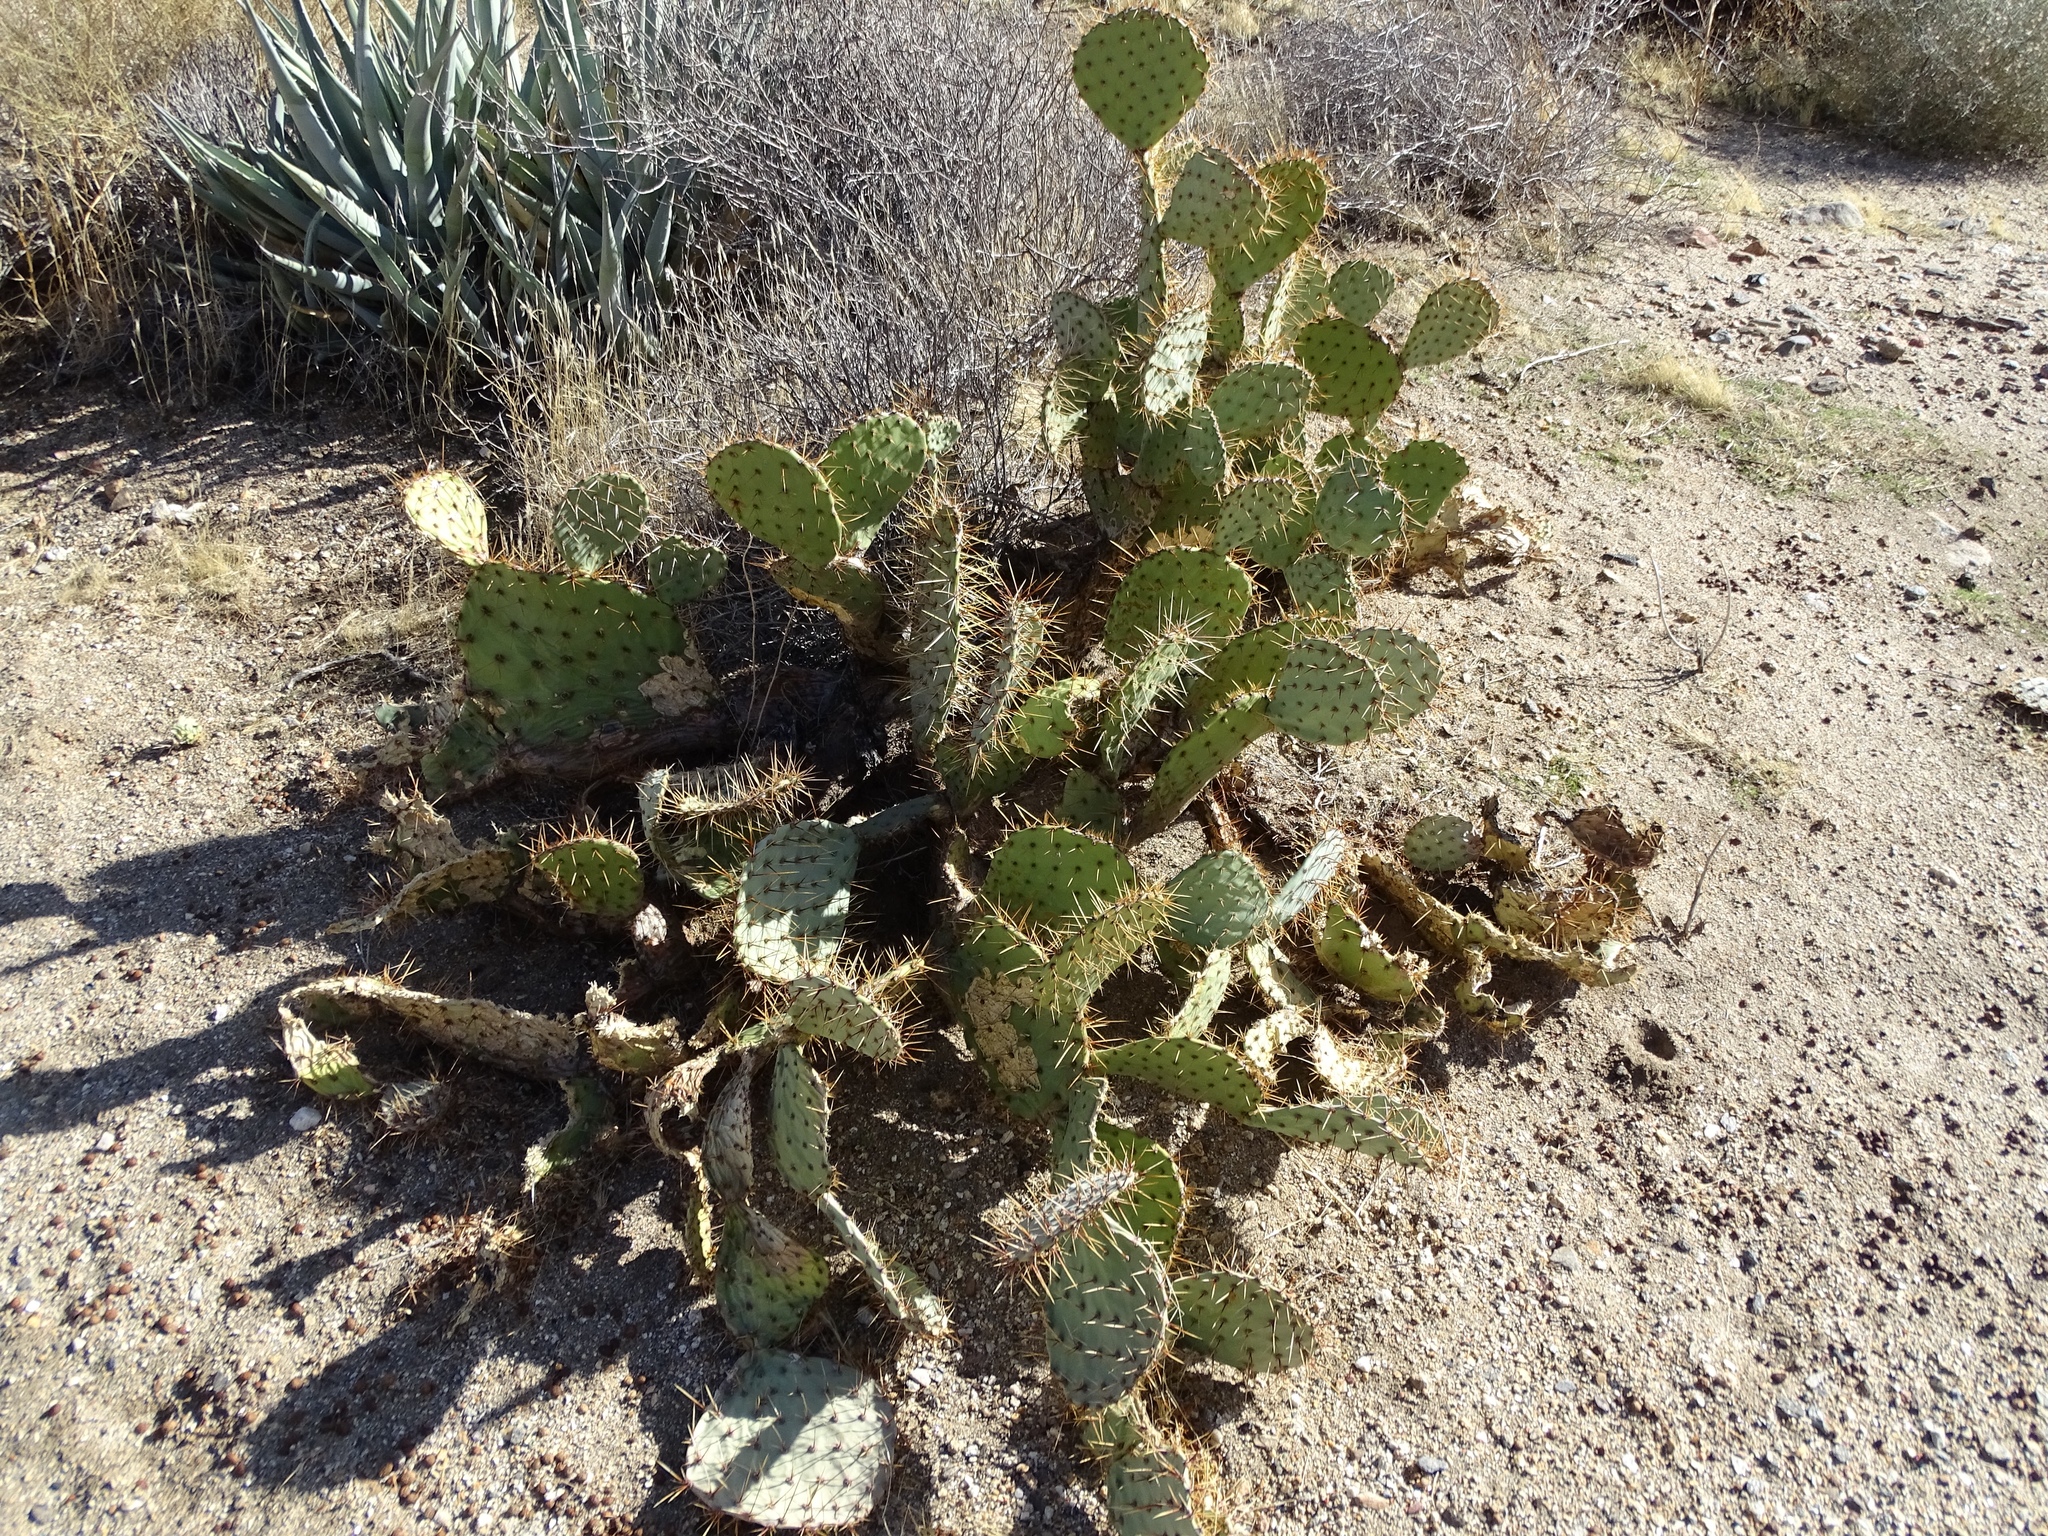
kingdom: Plantae
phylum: Tracheophyta
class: Magnoliopsida
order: Caryophyllales
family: Cactaceae
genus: Opuntia
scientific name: Opuntia phaeacantha
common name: New mexico prickly-pear
